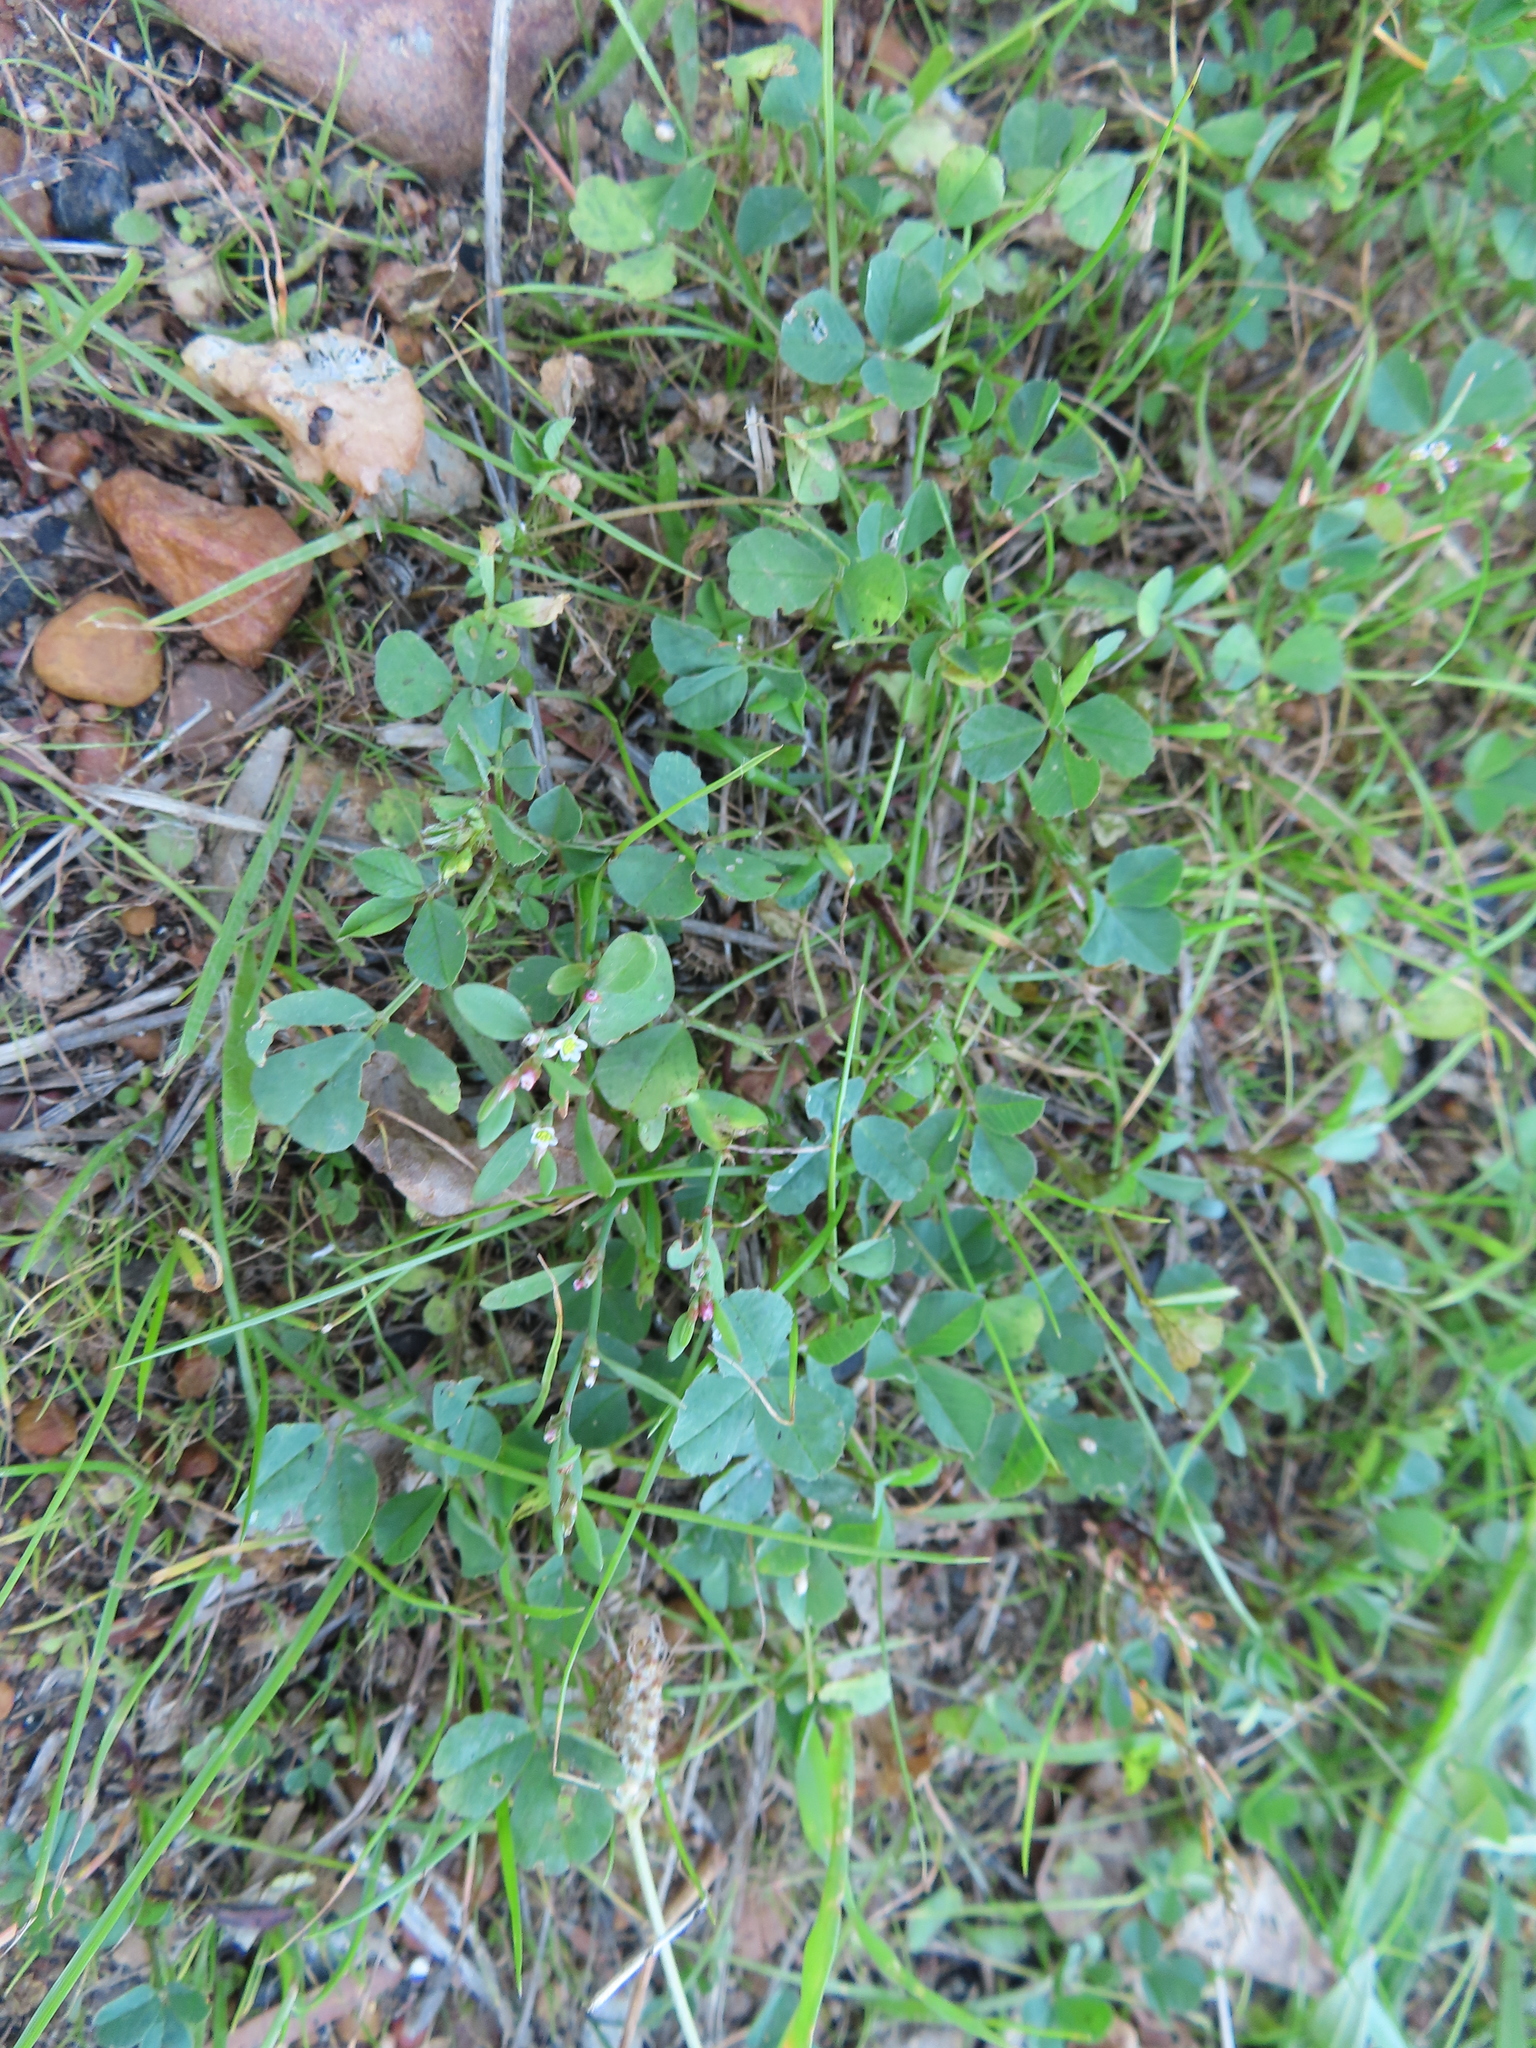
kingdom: Plantae
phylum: Tracheophyta
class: Magnoliopsida
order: Caryophyllales
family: Polygonaceae
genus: Polygonum
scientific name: Polygonum aviculare
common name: Prostrate knotweed
